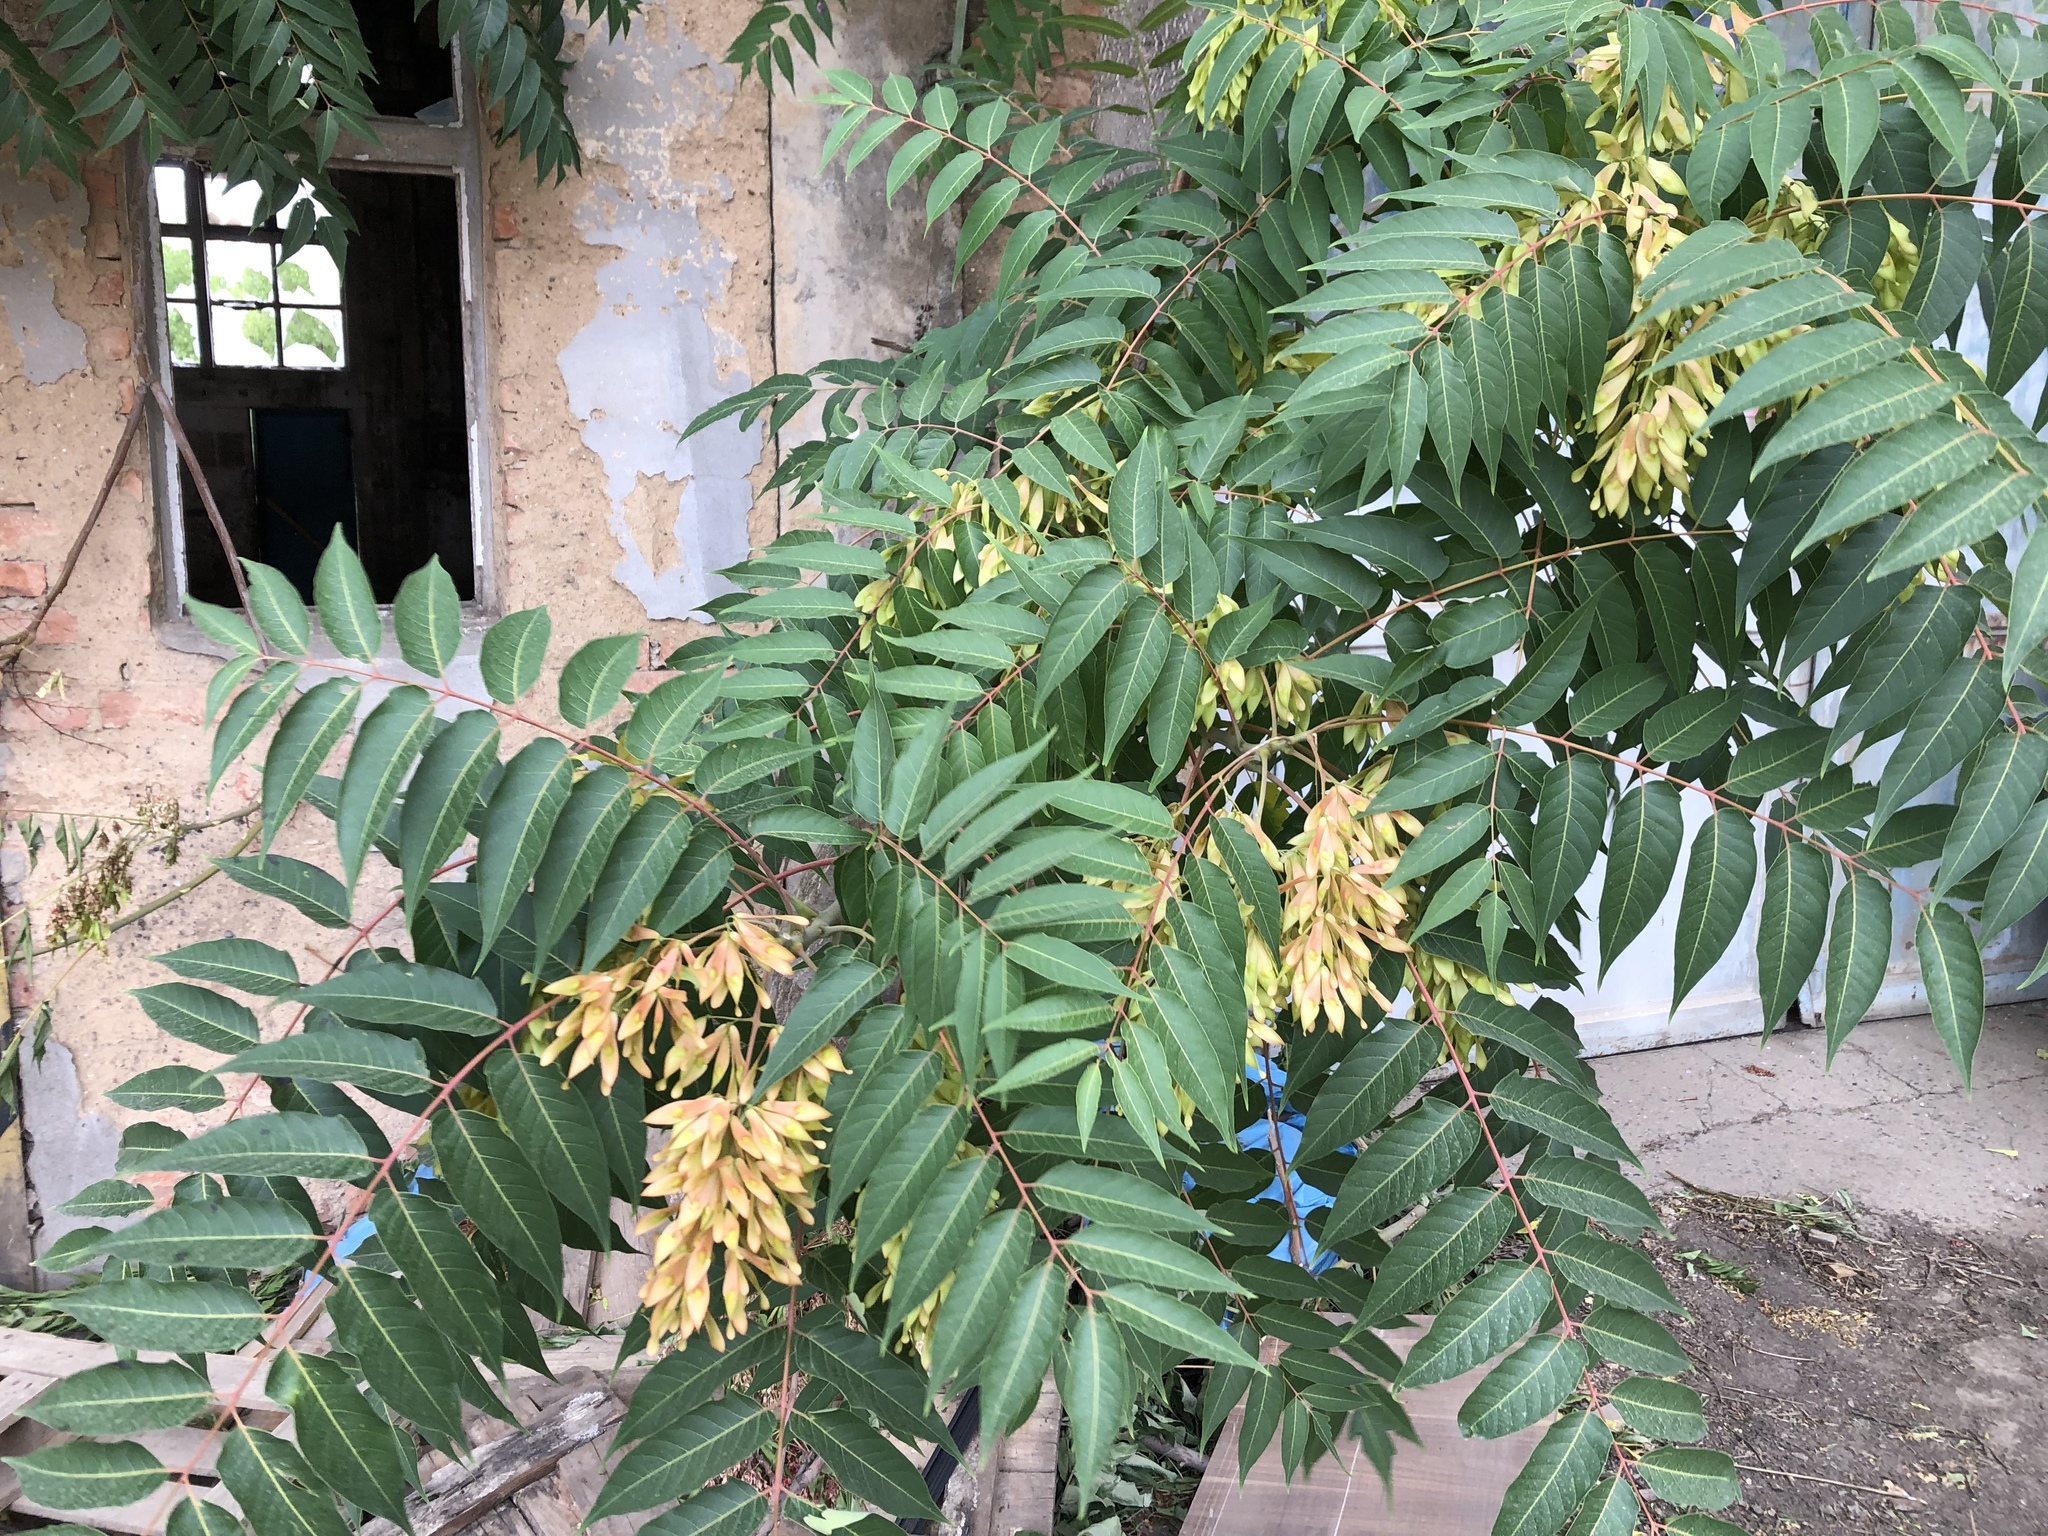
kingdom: Plantae
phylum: Tracheophyta
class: Magnoliopsida
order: Sapindales
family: Simaroubaceae
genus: Ailanthus
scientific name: Ailanthus altissima
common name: Tree-of-heaven
